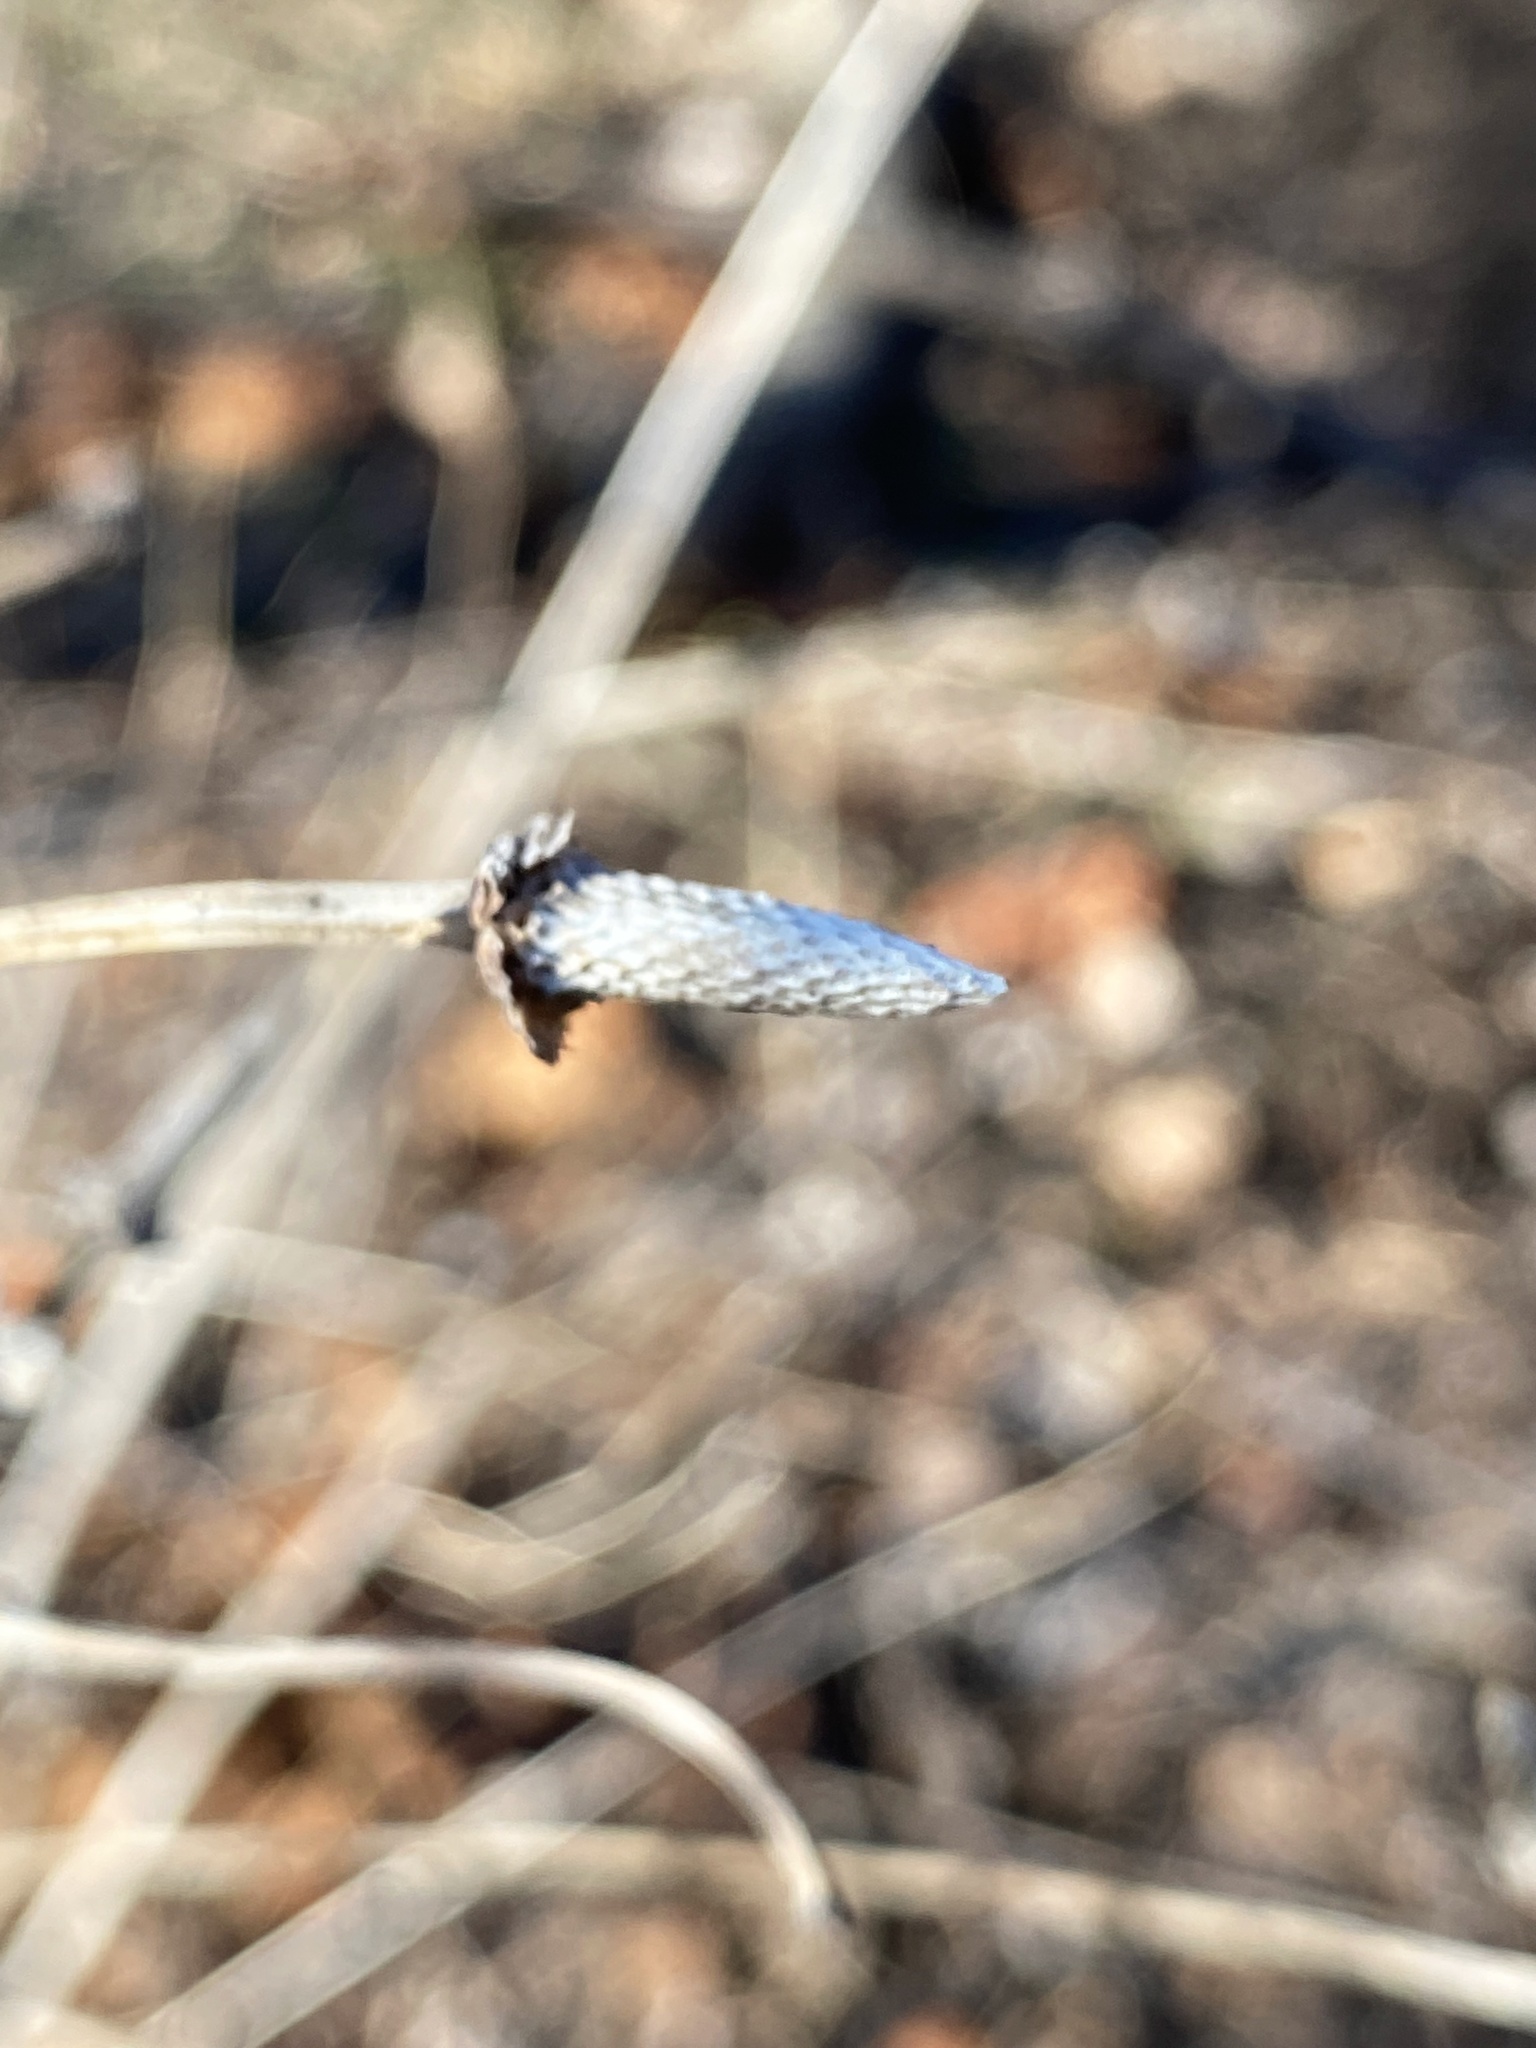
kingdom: Plantae
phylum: Tracheophyta
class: Magnoliopsida
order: Asterales
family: Asteraceae
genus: Rudbeckia
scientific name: Rudbeckia laciniata
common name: Coneflower
